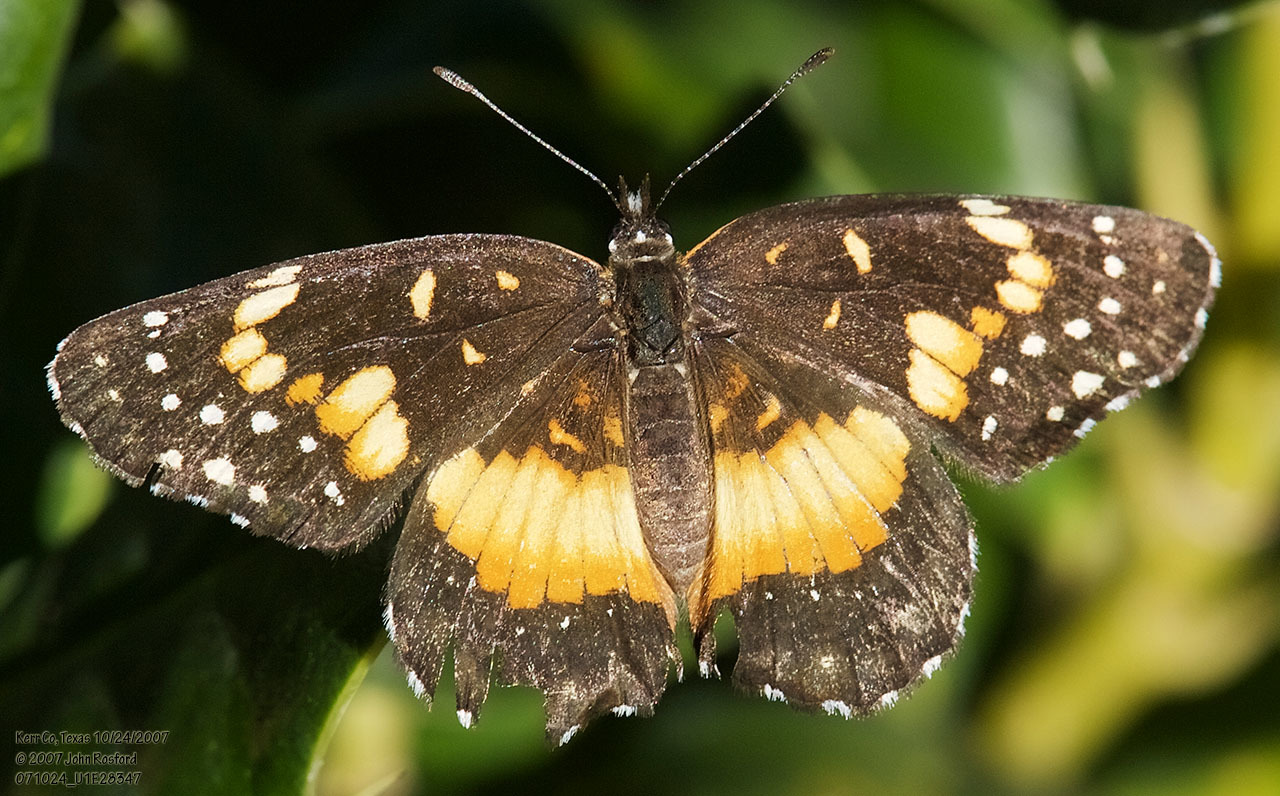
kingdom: Animalia
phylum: Arthropoda
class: Insecta
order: Lepidoptera
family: Nymphalidae
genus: Chlosyne
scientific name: Chlosyne lacinia
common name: Bordered patch
